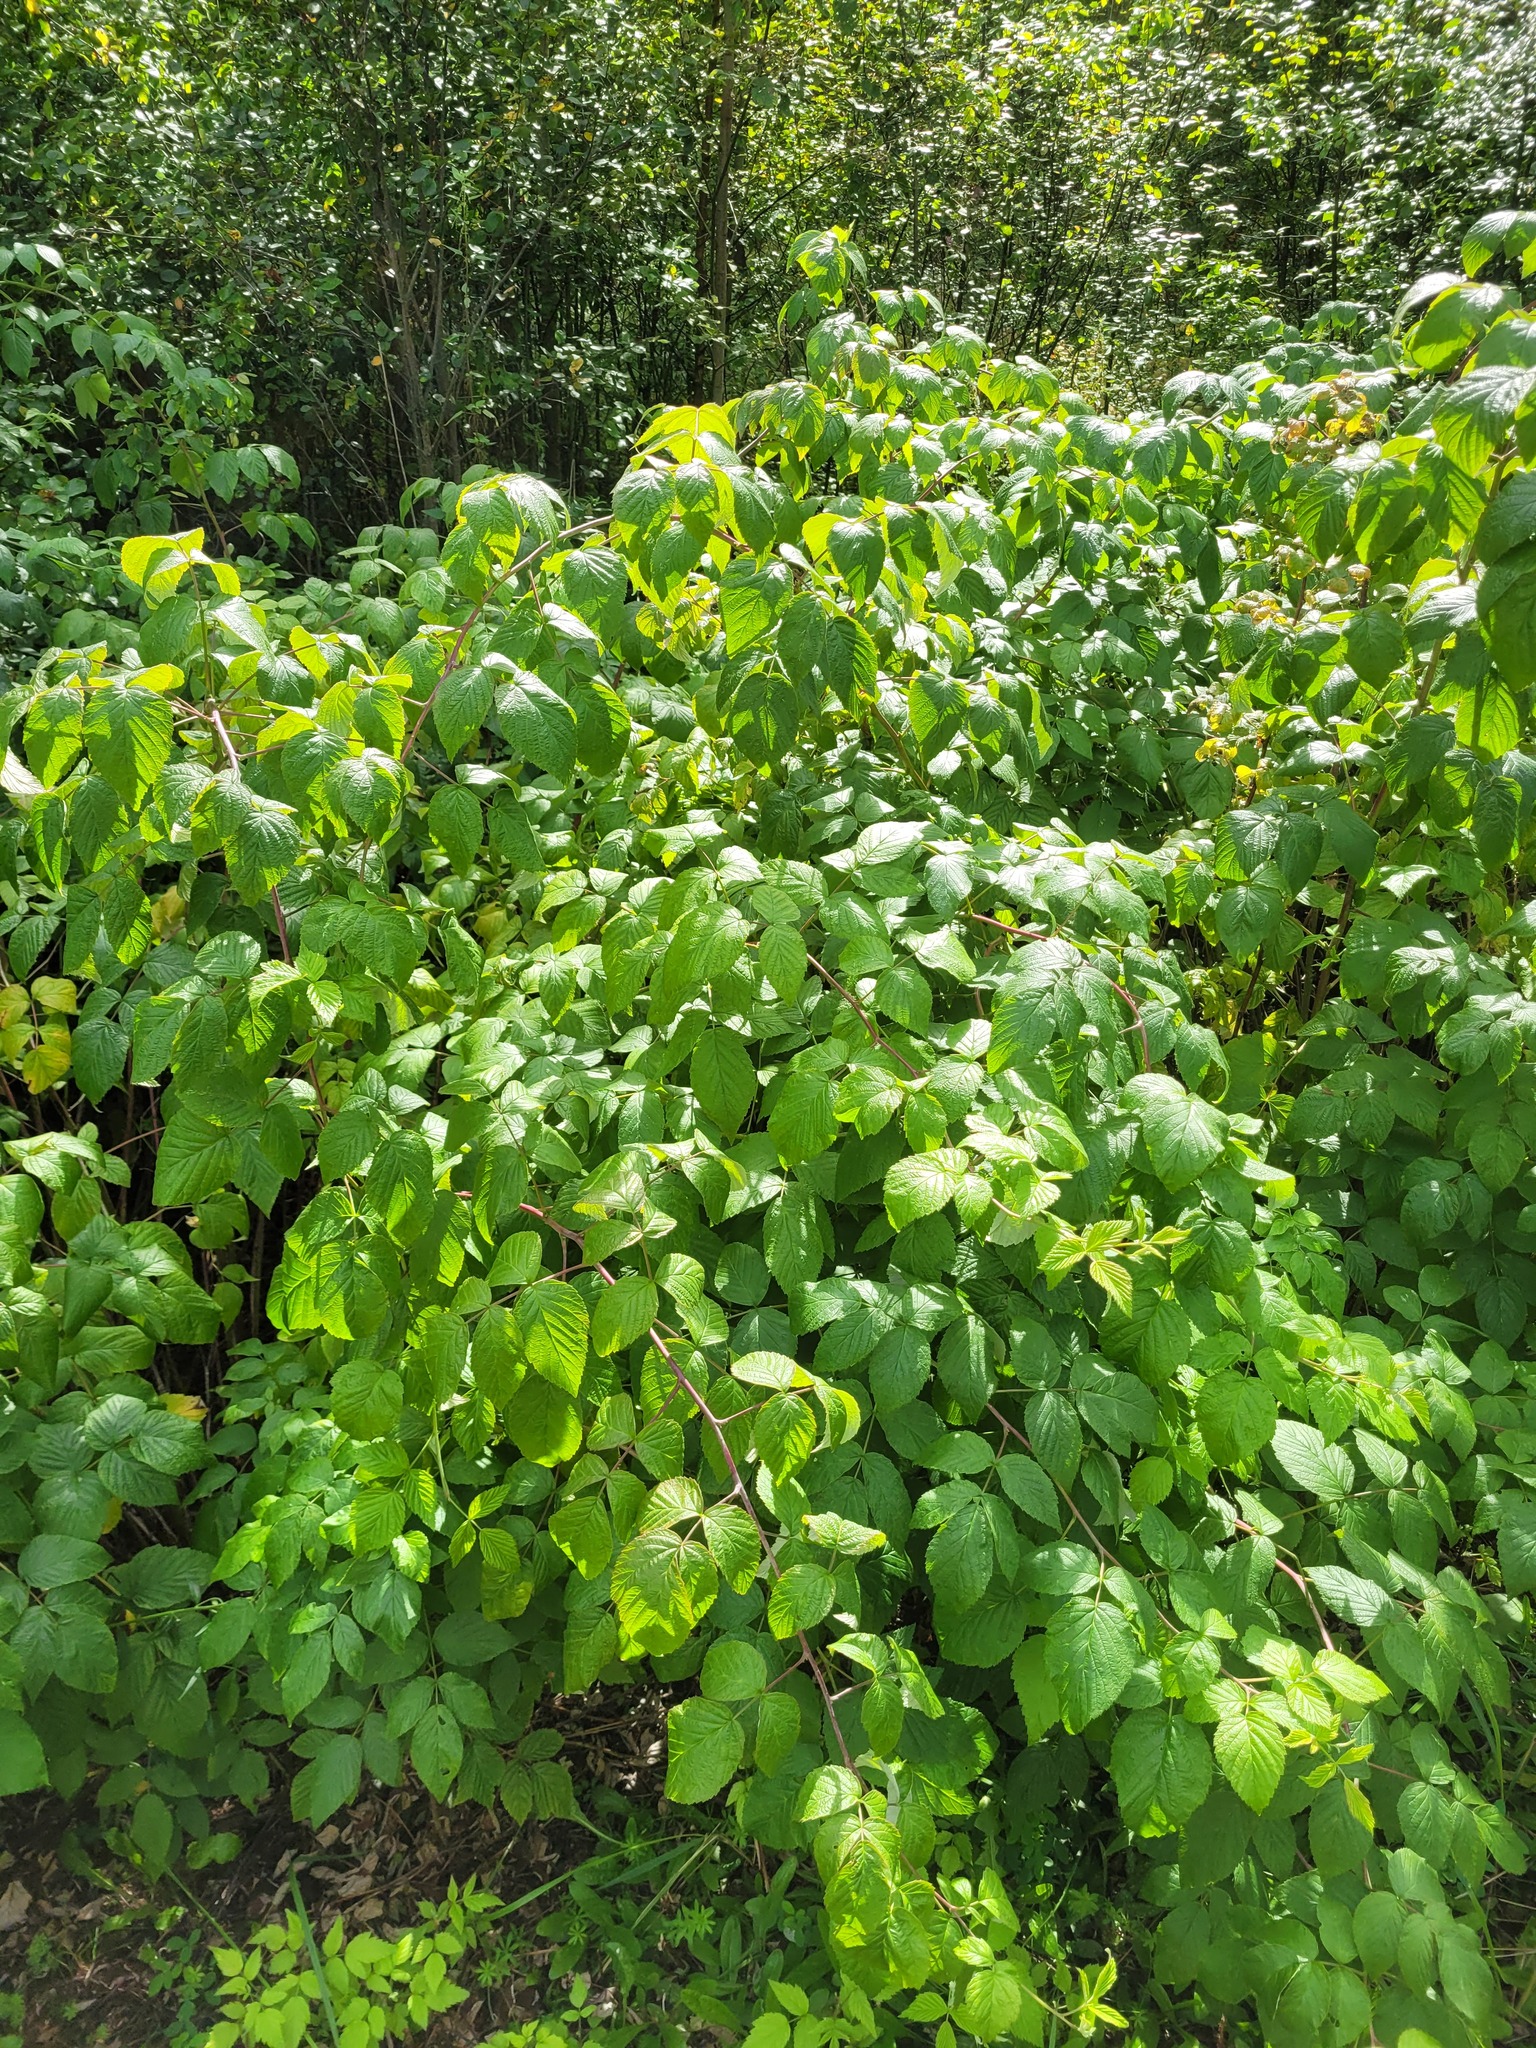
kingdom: Plantae
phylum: Tracheophyta
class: Magnoliopsida
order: Rosales
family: Rosaceae
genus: Rubus
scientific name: Rubus idaeus
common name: Raspberry
